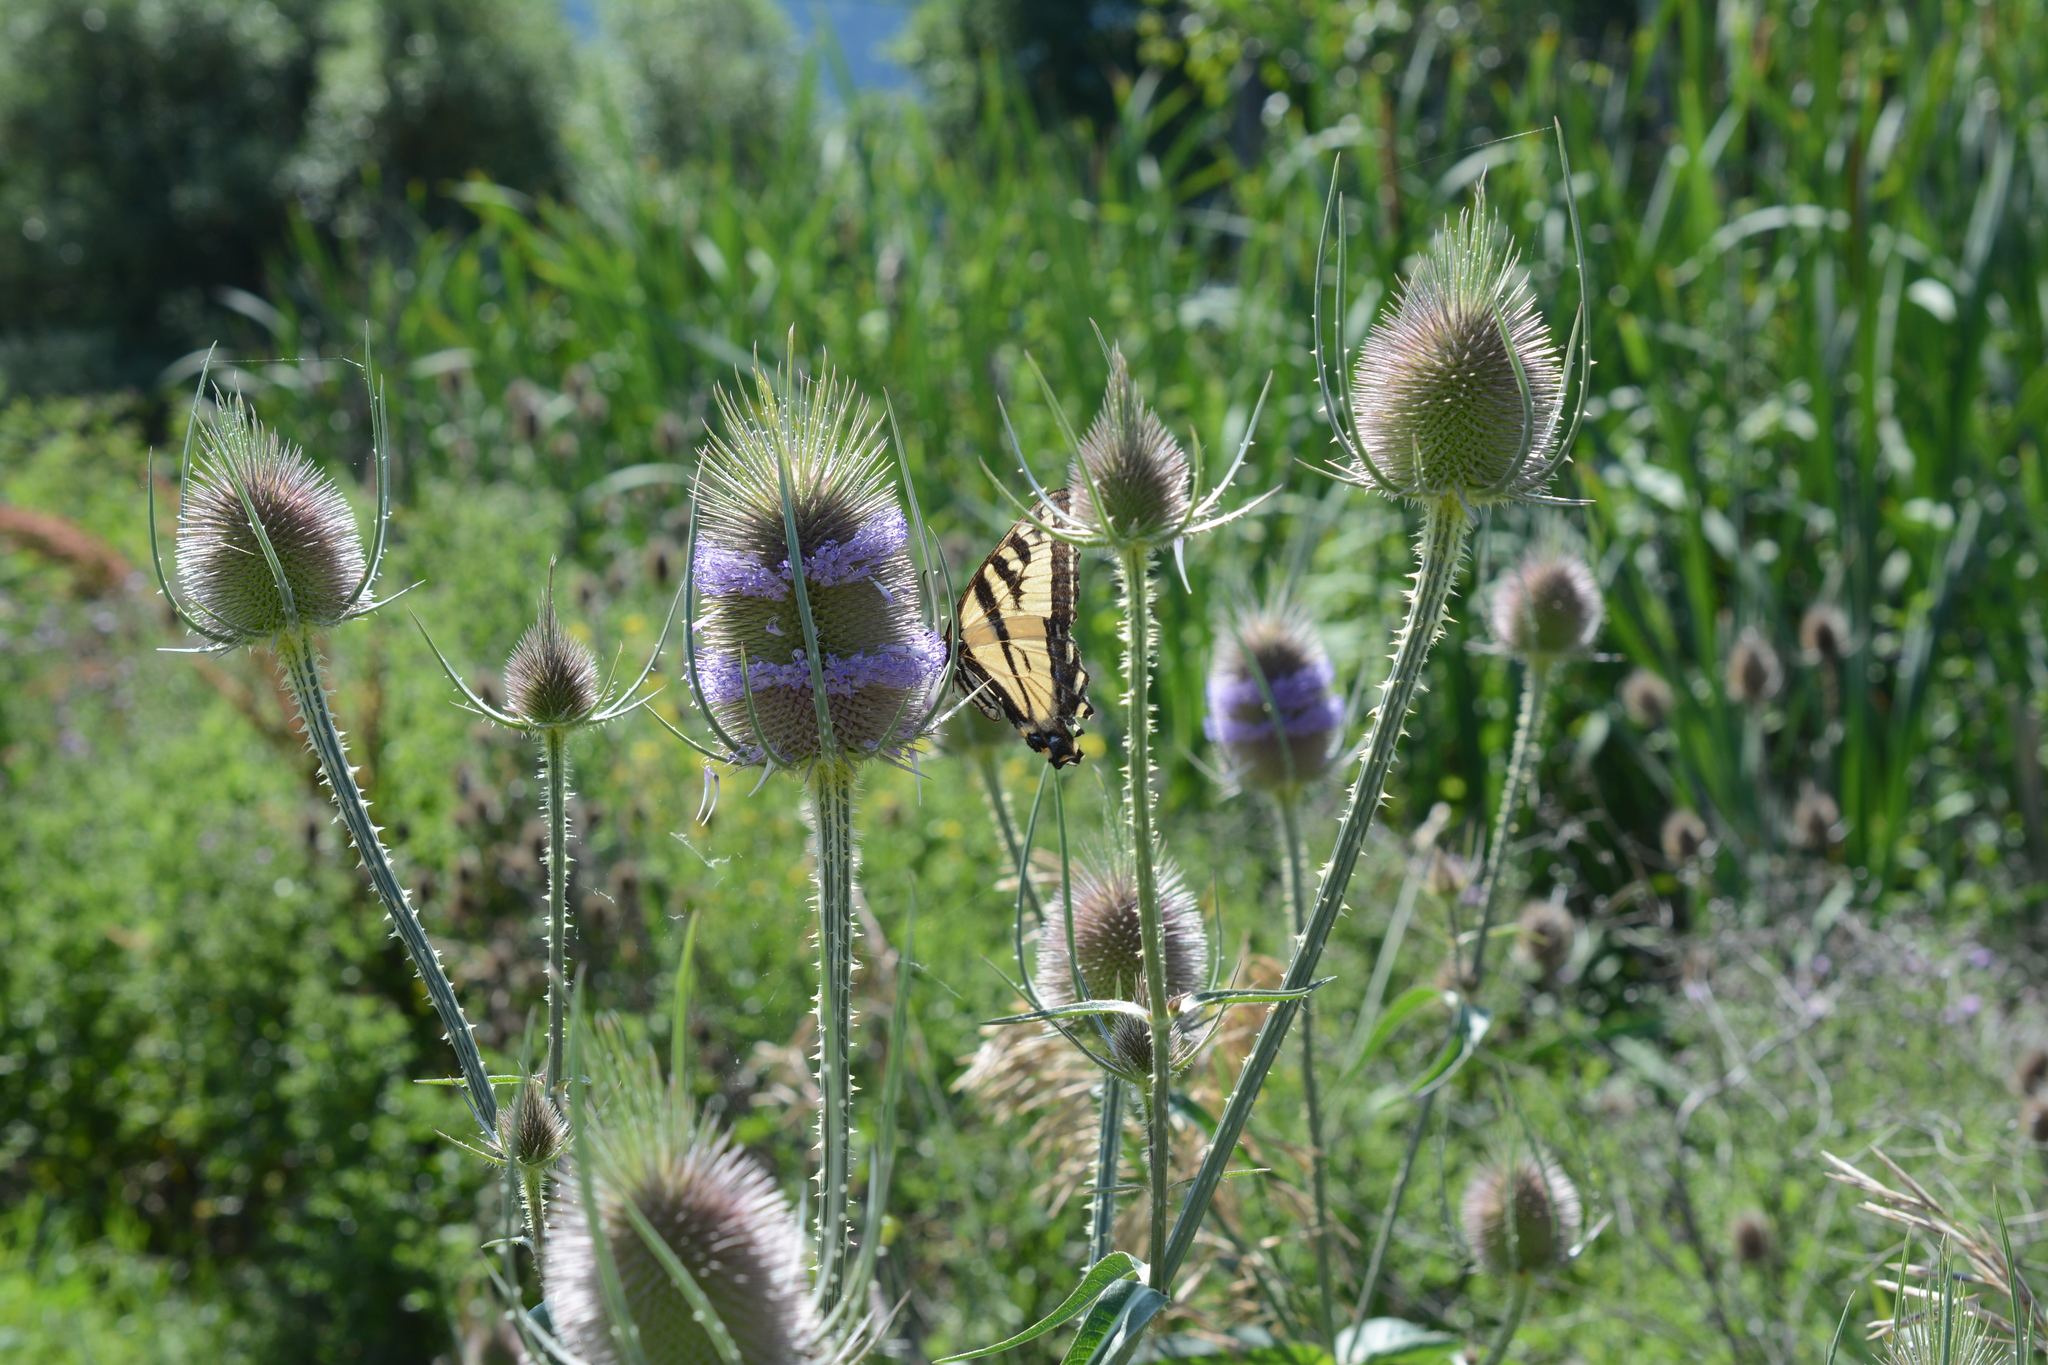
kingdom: Animalia
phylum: Arthropoda
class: Insecta
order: Lepidoptera
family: Papilionidae
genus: Papilio
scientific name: Papilio rutulus
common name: Western tiger swallowtail
